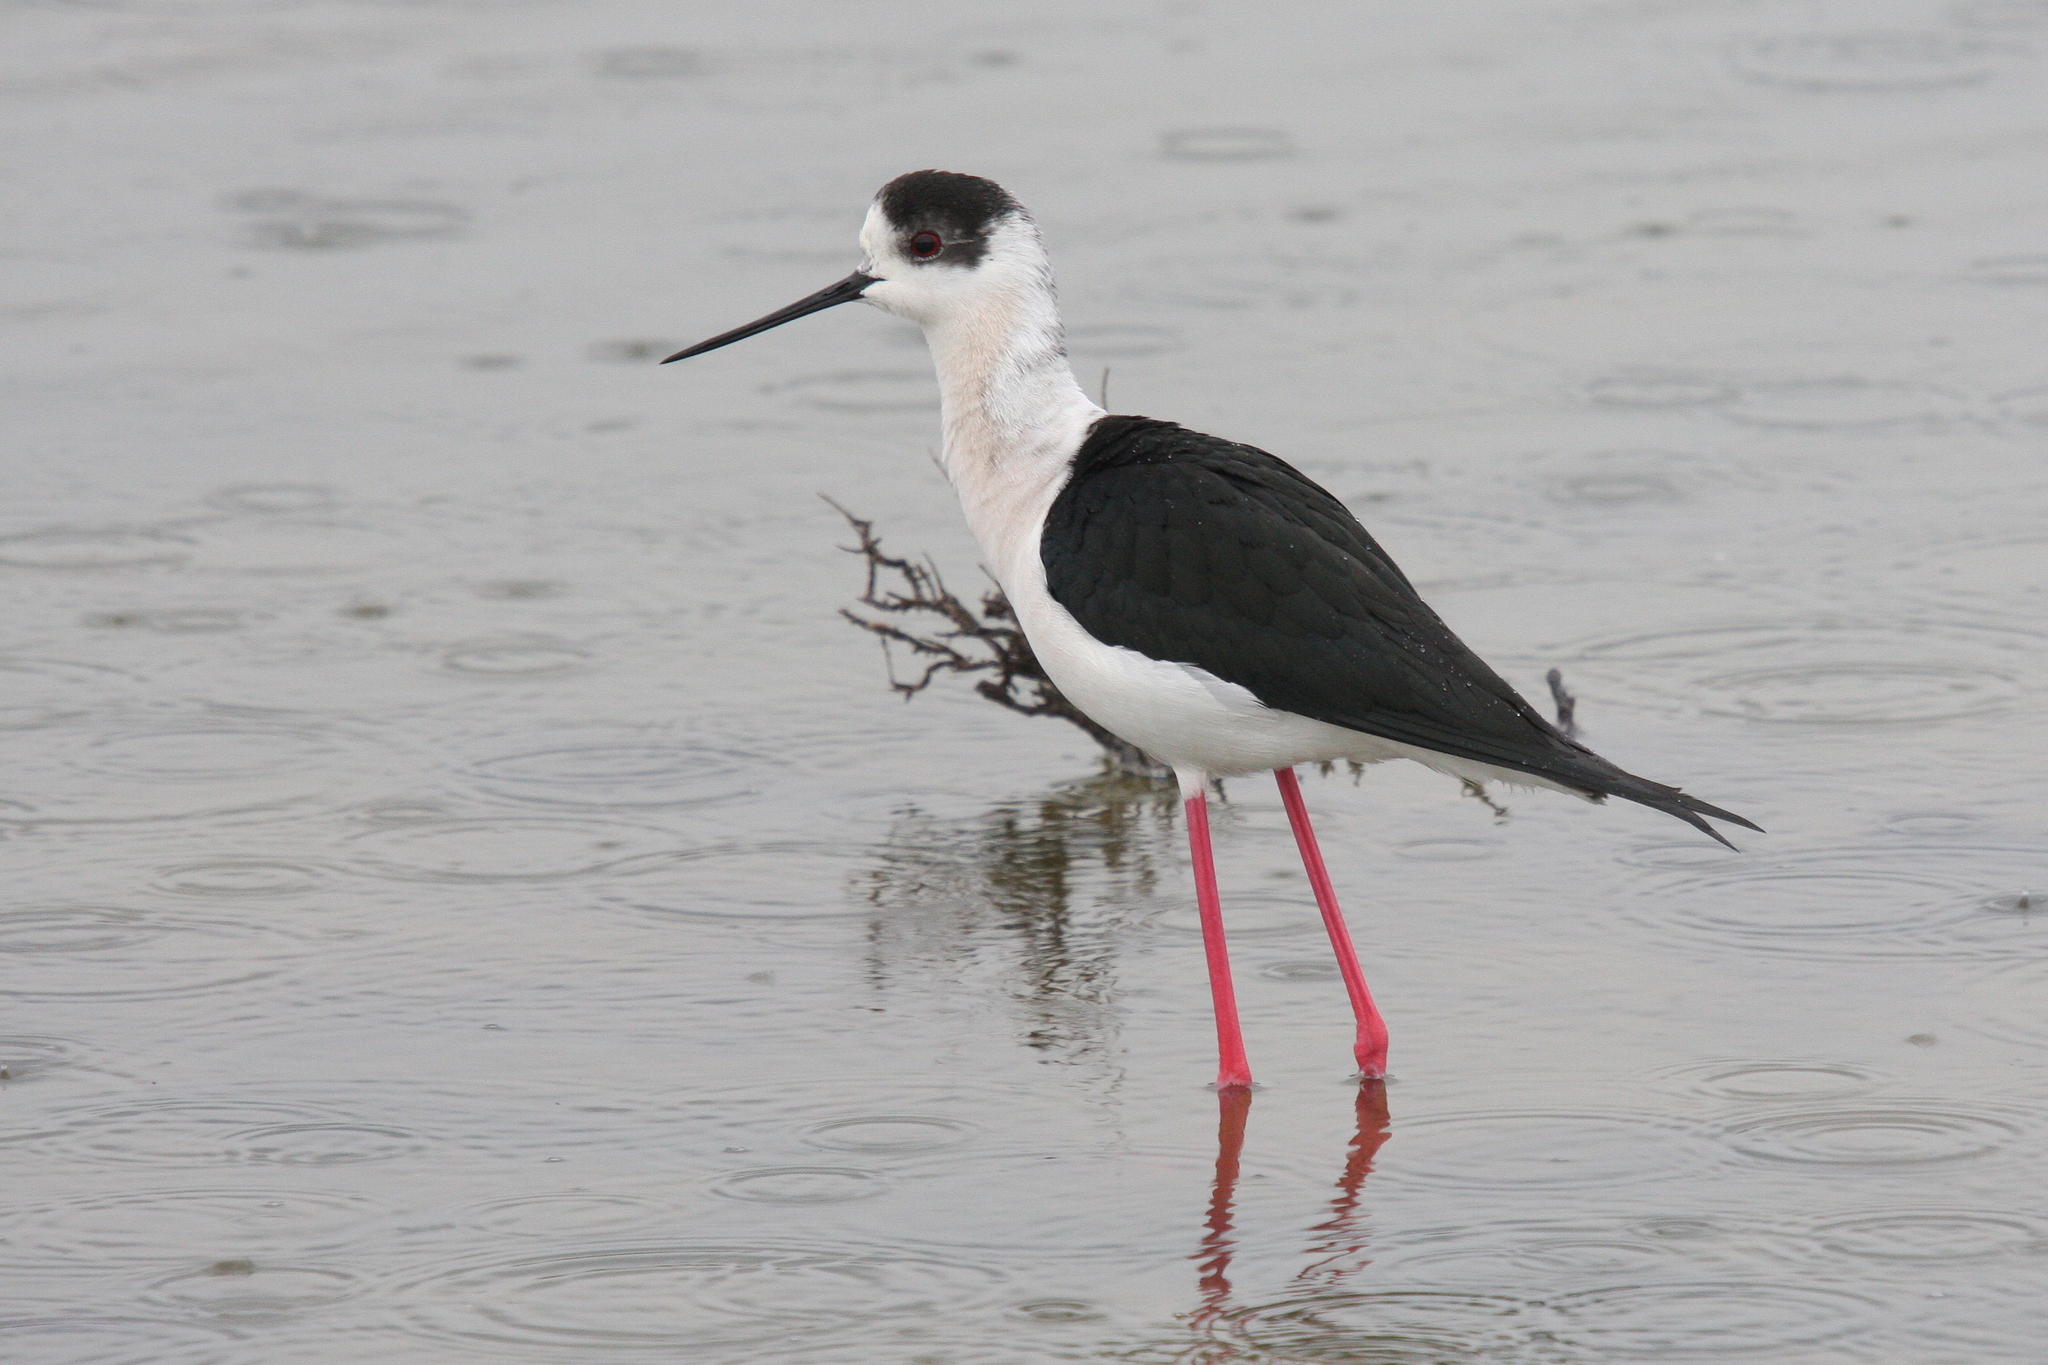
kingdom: Animalia
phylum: Chordata
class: Aves
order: Charadriiformes
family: Recurvirostridae
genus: Himantopus
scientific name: Himantopus himantopus
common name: Black-winged stilt
